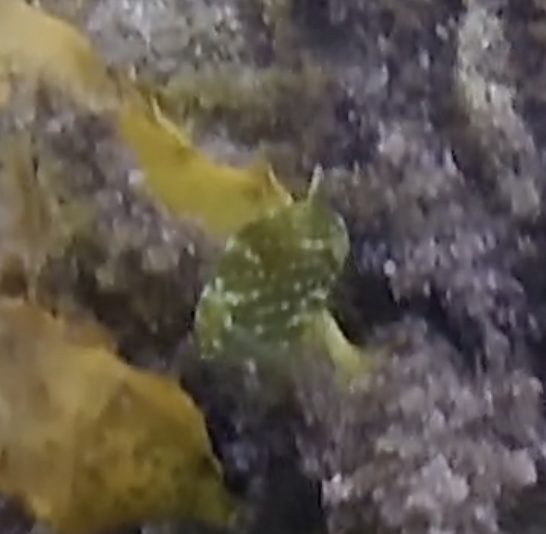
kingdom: Animalia
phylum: Chordata
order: Tetraodontiformes
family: Monacanthidae
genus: Brachaluteres
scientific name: Brachaluteres jacksonianus
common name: Pigmy leatherjacket
